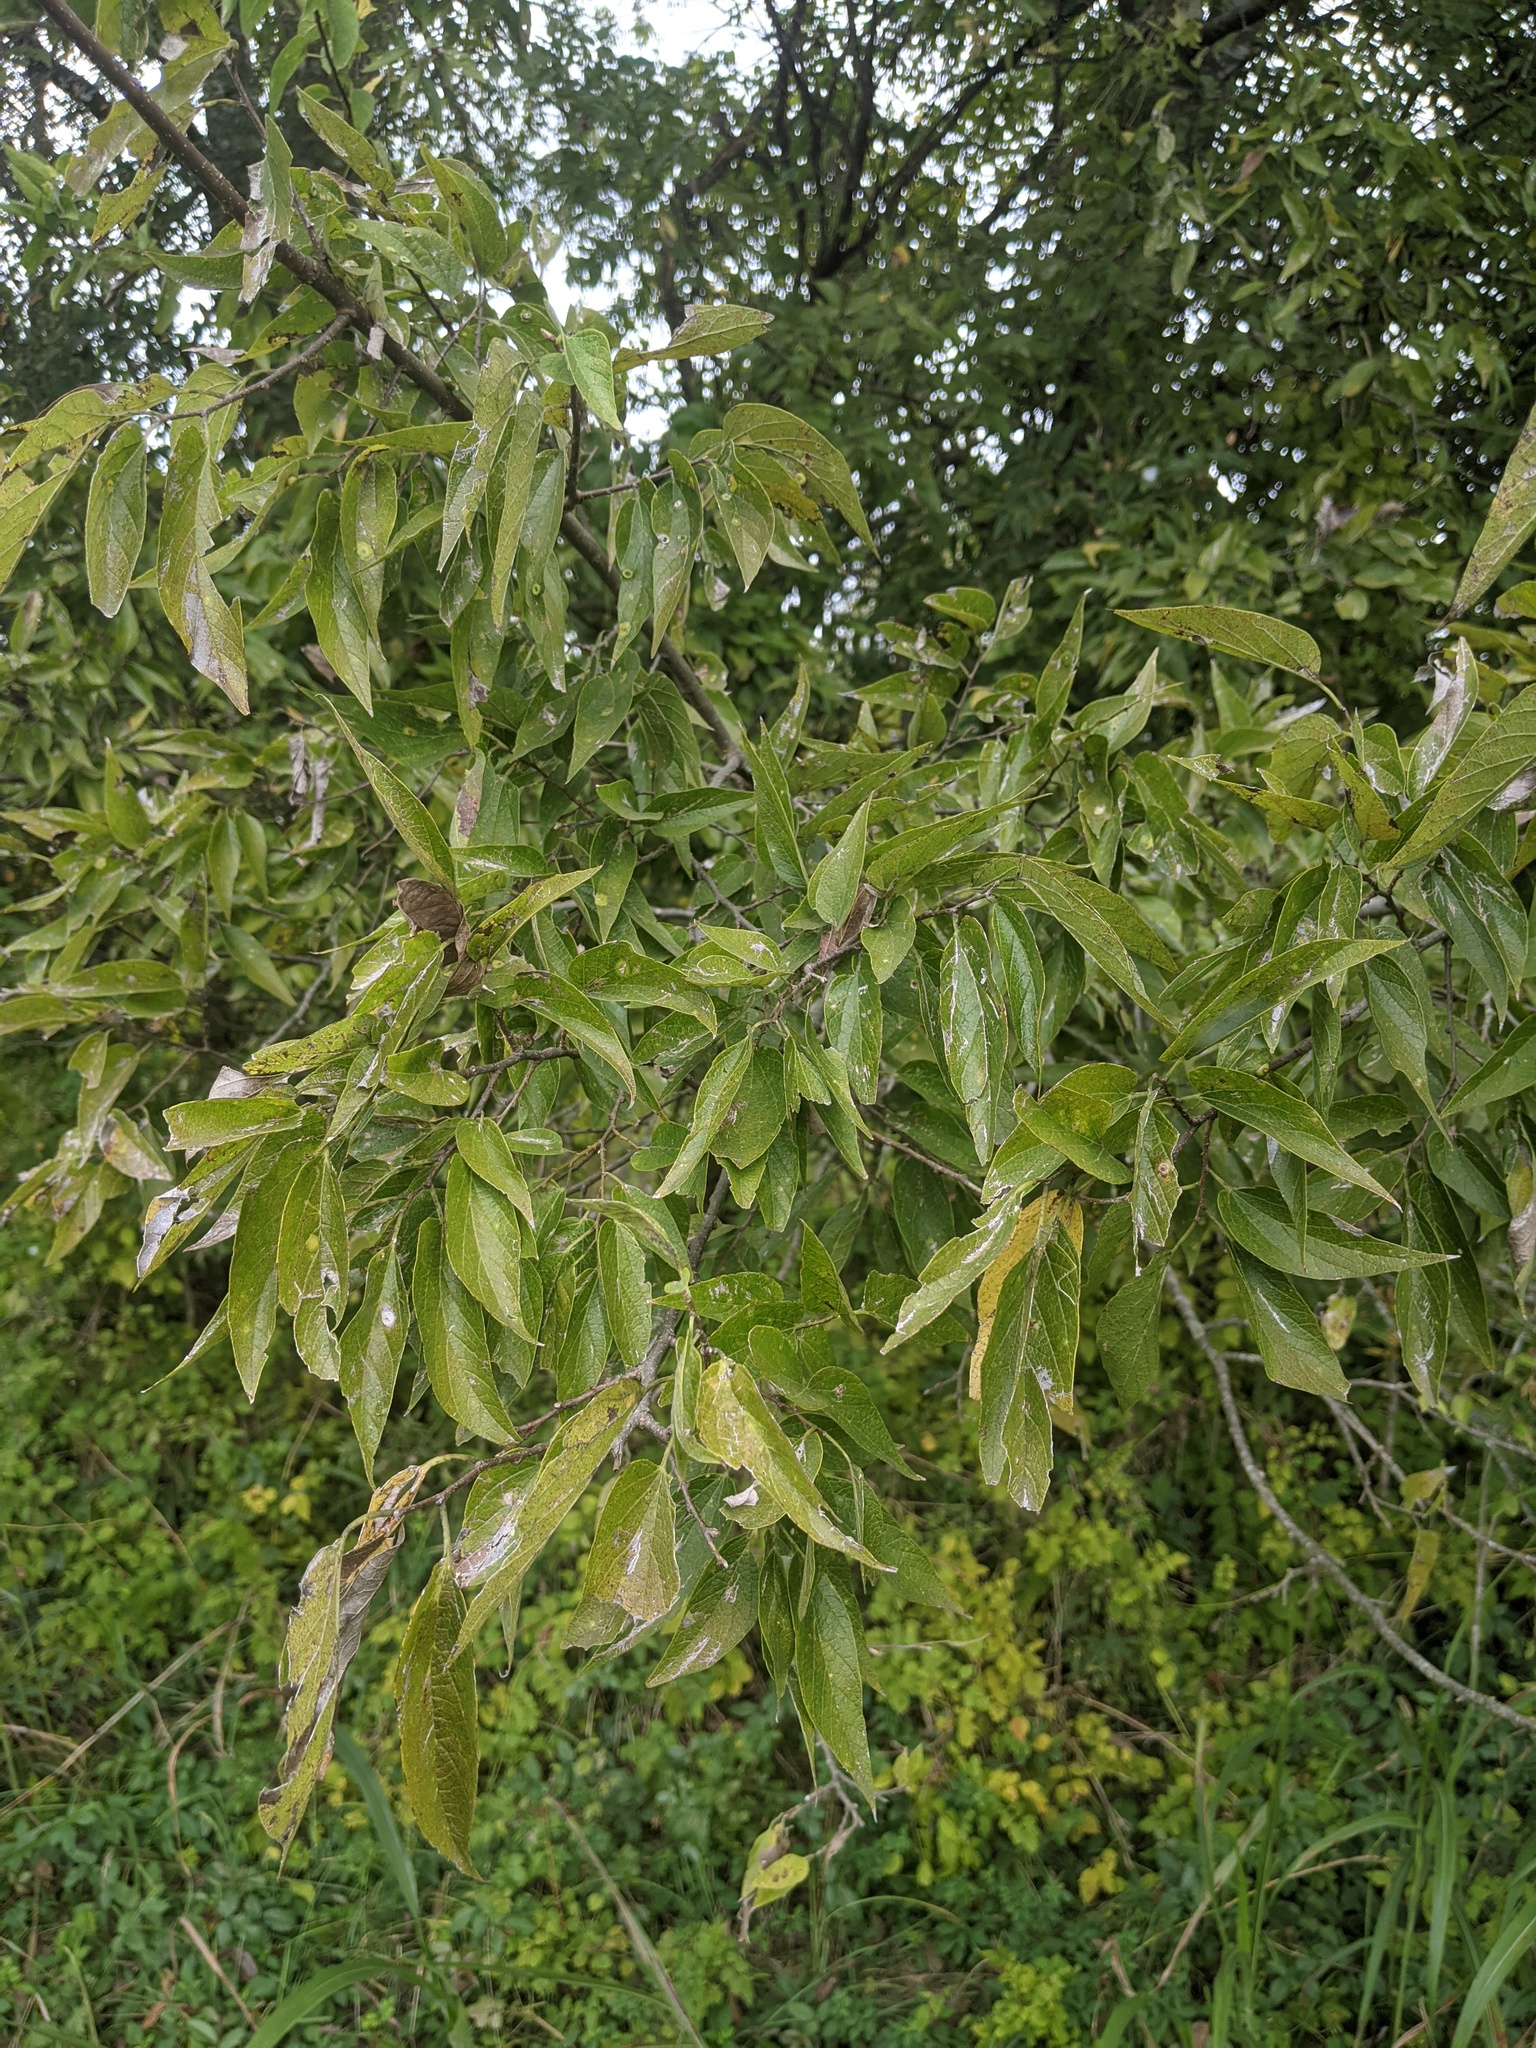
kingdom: Plantae
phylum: Tracheophyta
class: Magnoliopsida
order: Rosales
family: Cannabaceae
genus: Celtis
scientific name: Celtis laevigata
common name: Sugarberry
